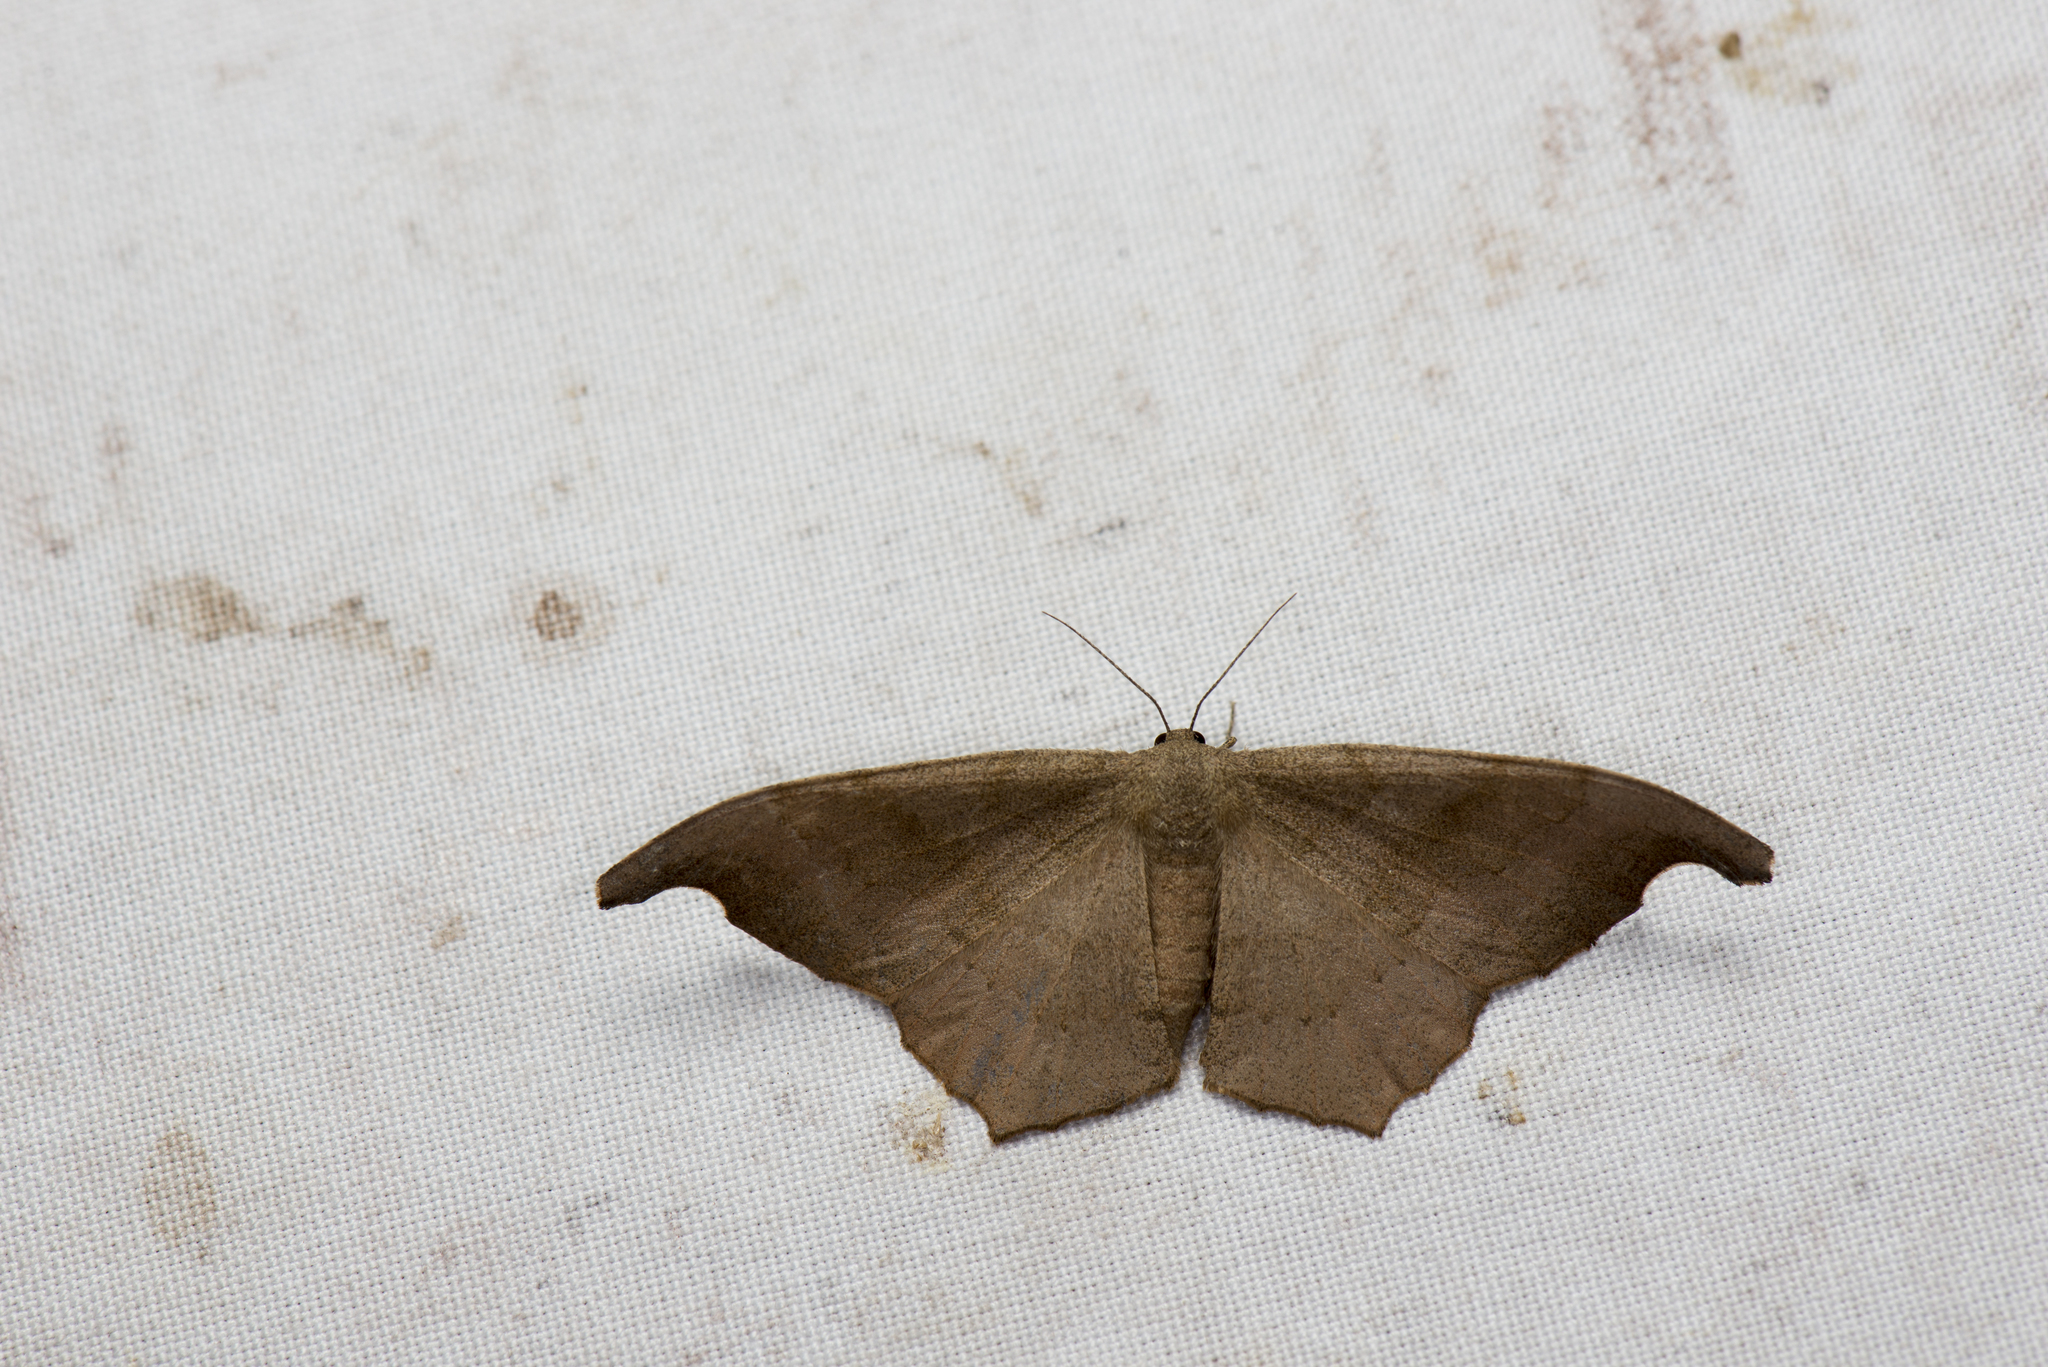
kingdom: Animalia
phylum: Arthropoda
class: Insecta
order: Lepidoptera
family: Geometridae
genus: Hyposidra
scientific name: Hyposidra talaca
